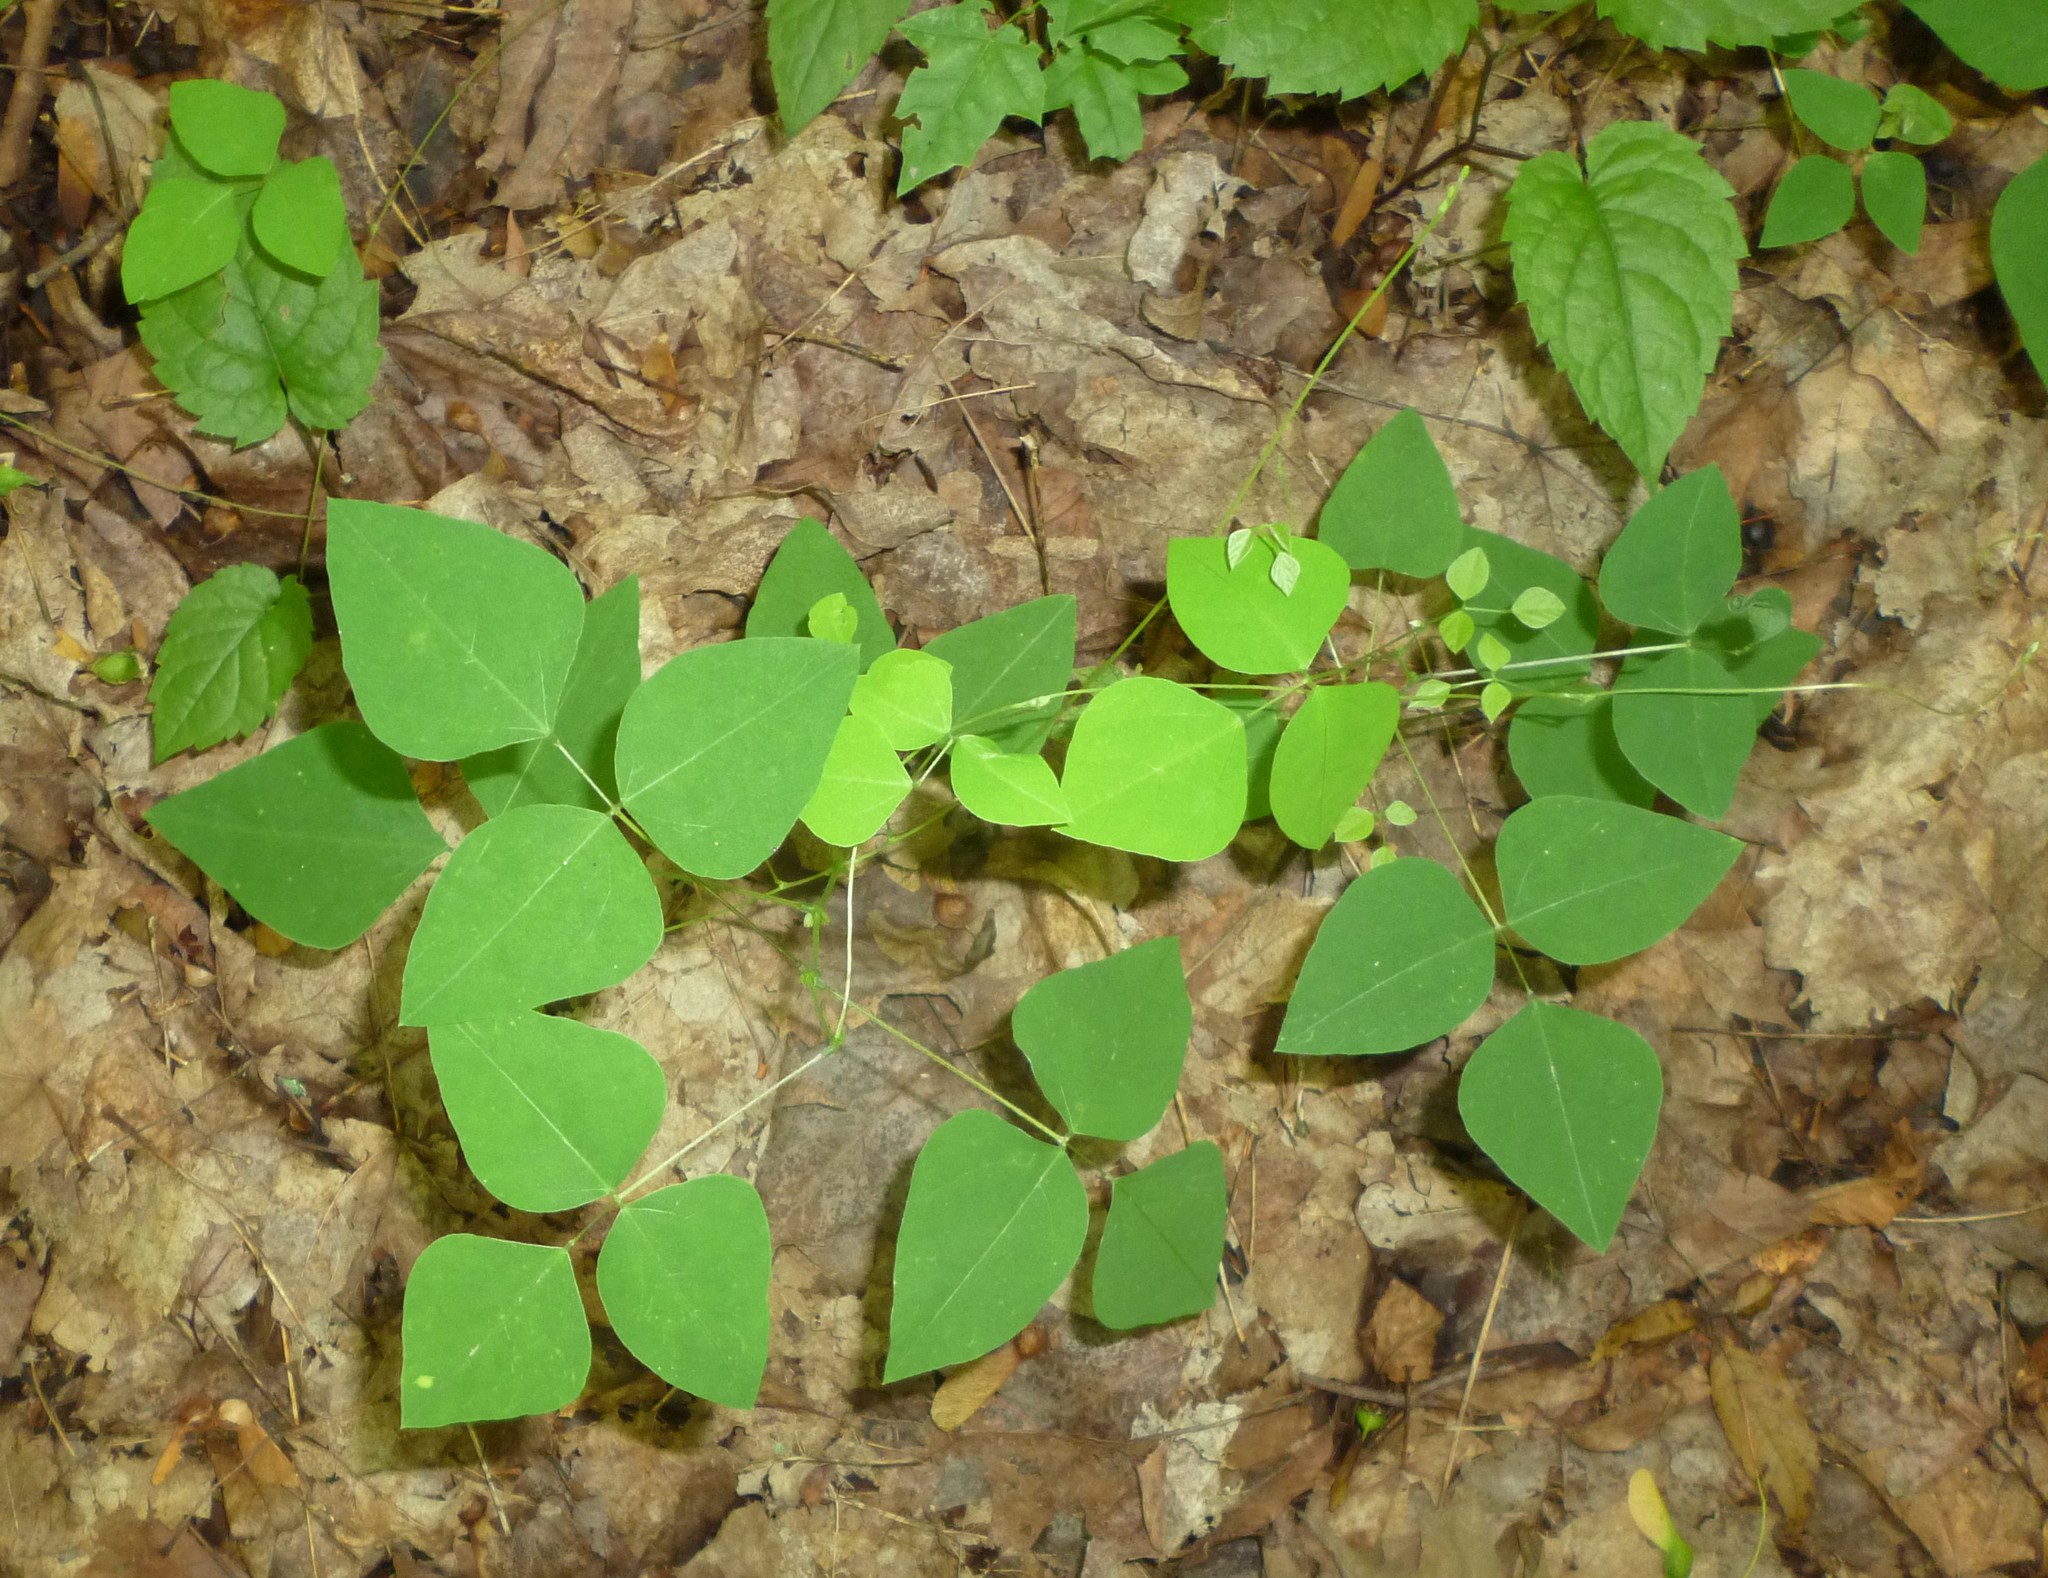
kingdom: Plantae
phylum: Tracheophyta
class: Magnoliopsida
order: Fabales
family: Fabaceae
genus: Amphicarpaea
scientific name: Amphicarpaea bracteata
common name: American hog peanut
